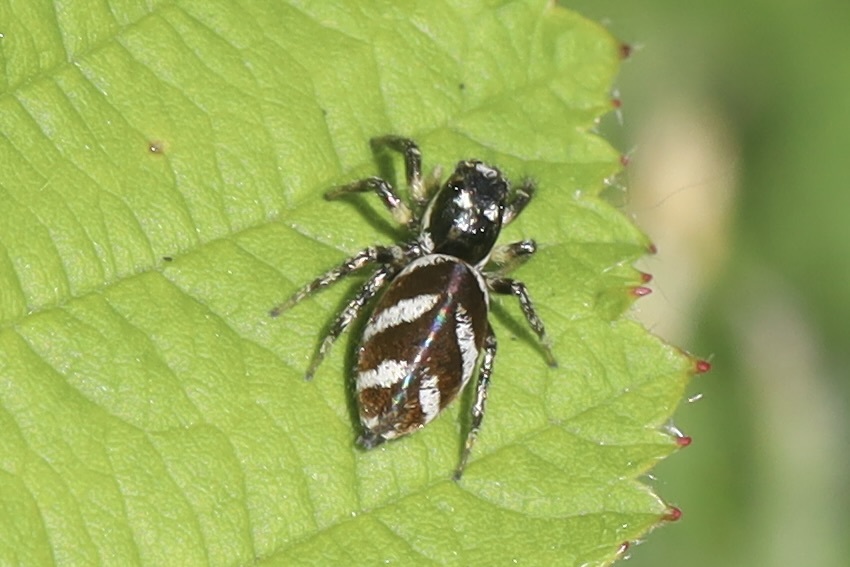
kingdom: Animalia
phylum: Arthropoda
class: Arachnida
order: Araneae
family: Salticidae
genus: Salticus
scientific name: Salticus scenicus
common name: Zebra jumper
